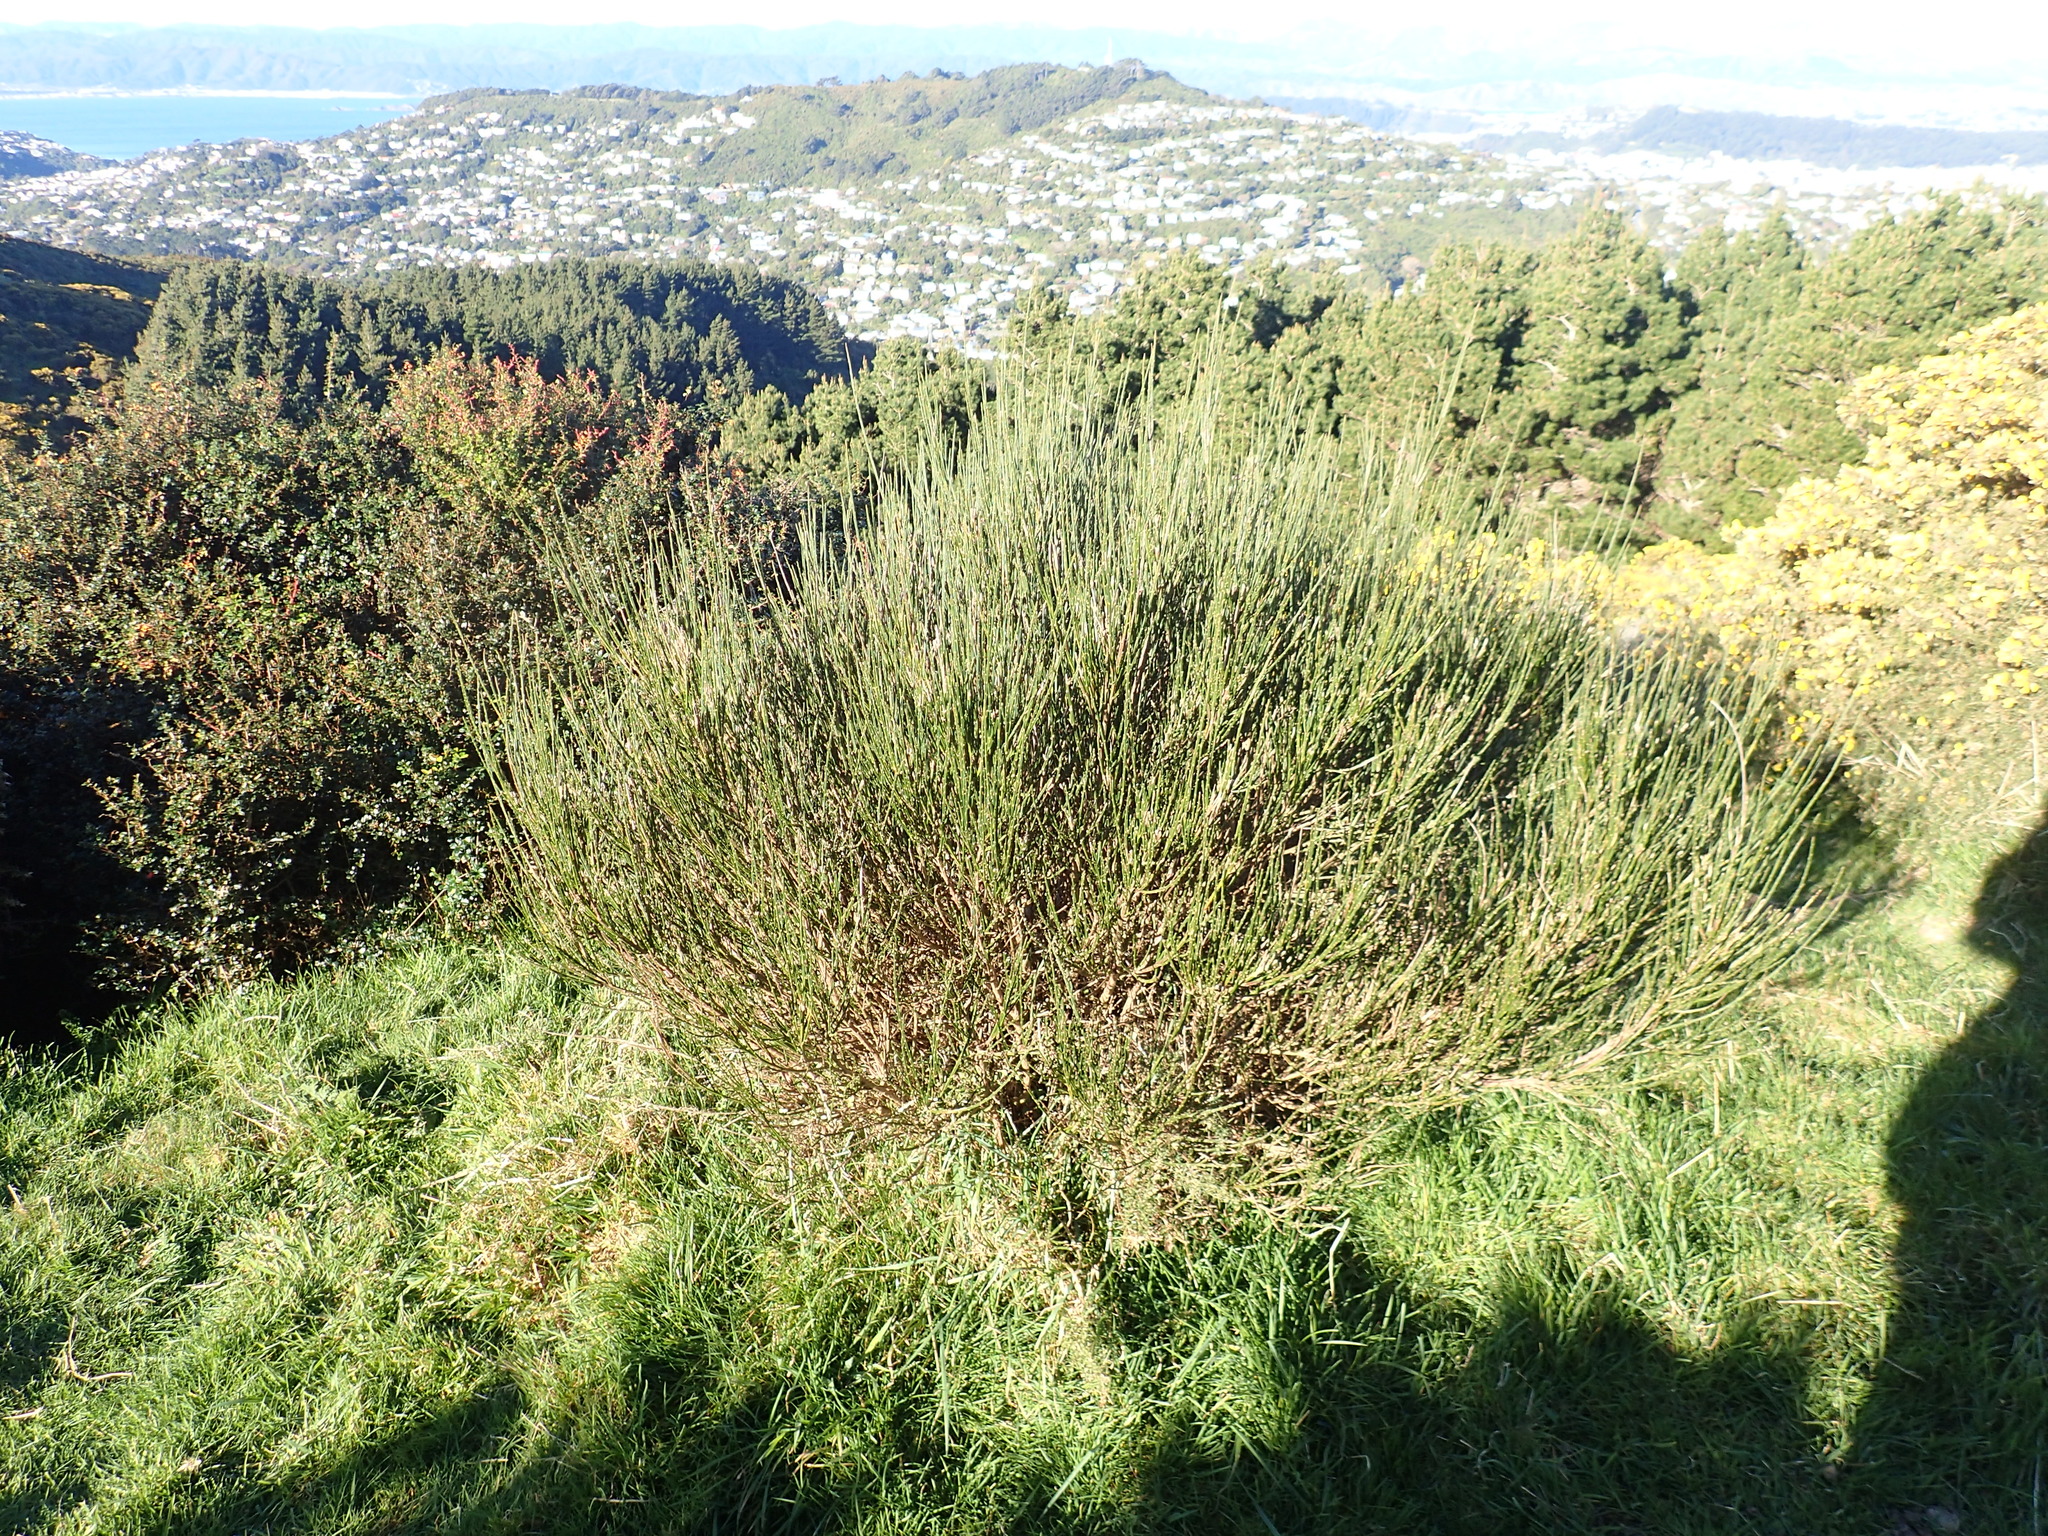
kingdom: Plantae
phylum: Tracheophyta
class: Magnoliopsida
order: Fabales
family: Fabaceae
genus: Cytisus
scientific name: Cytisus scoparius
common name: Scotch broom
